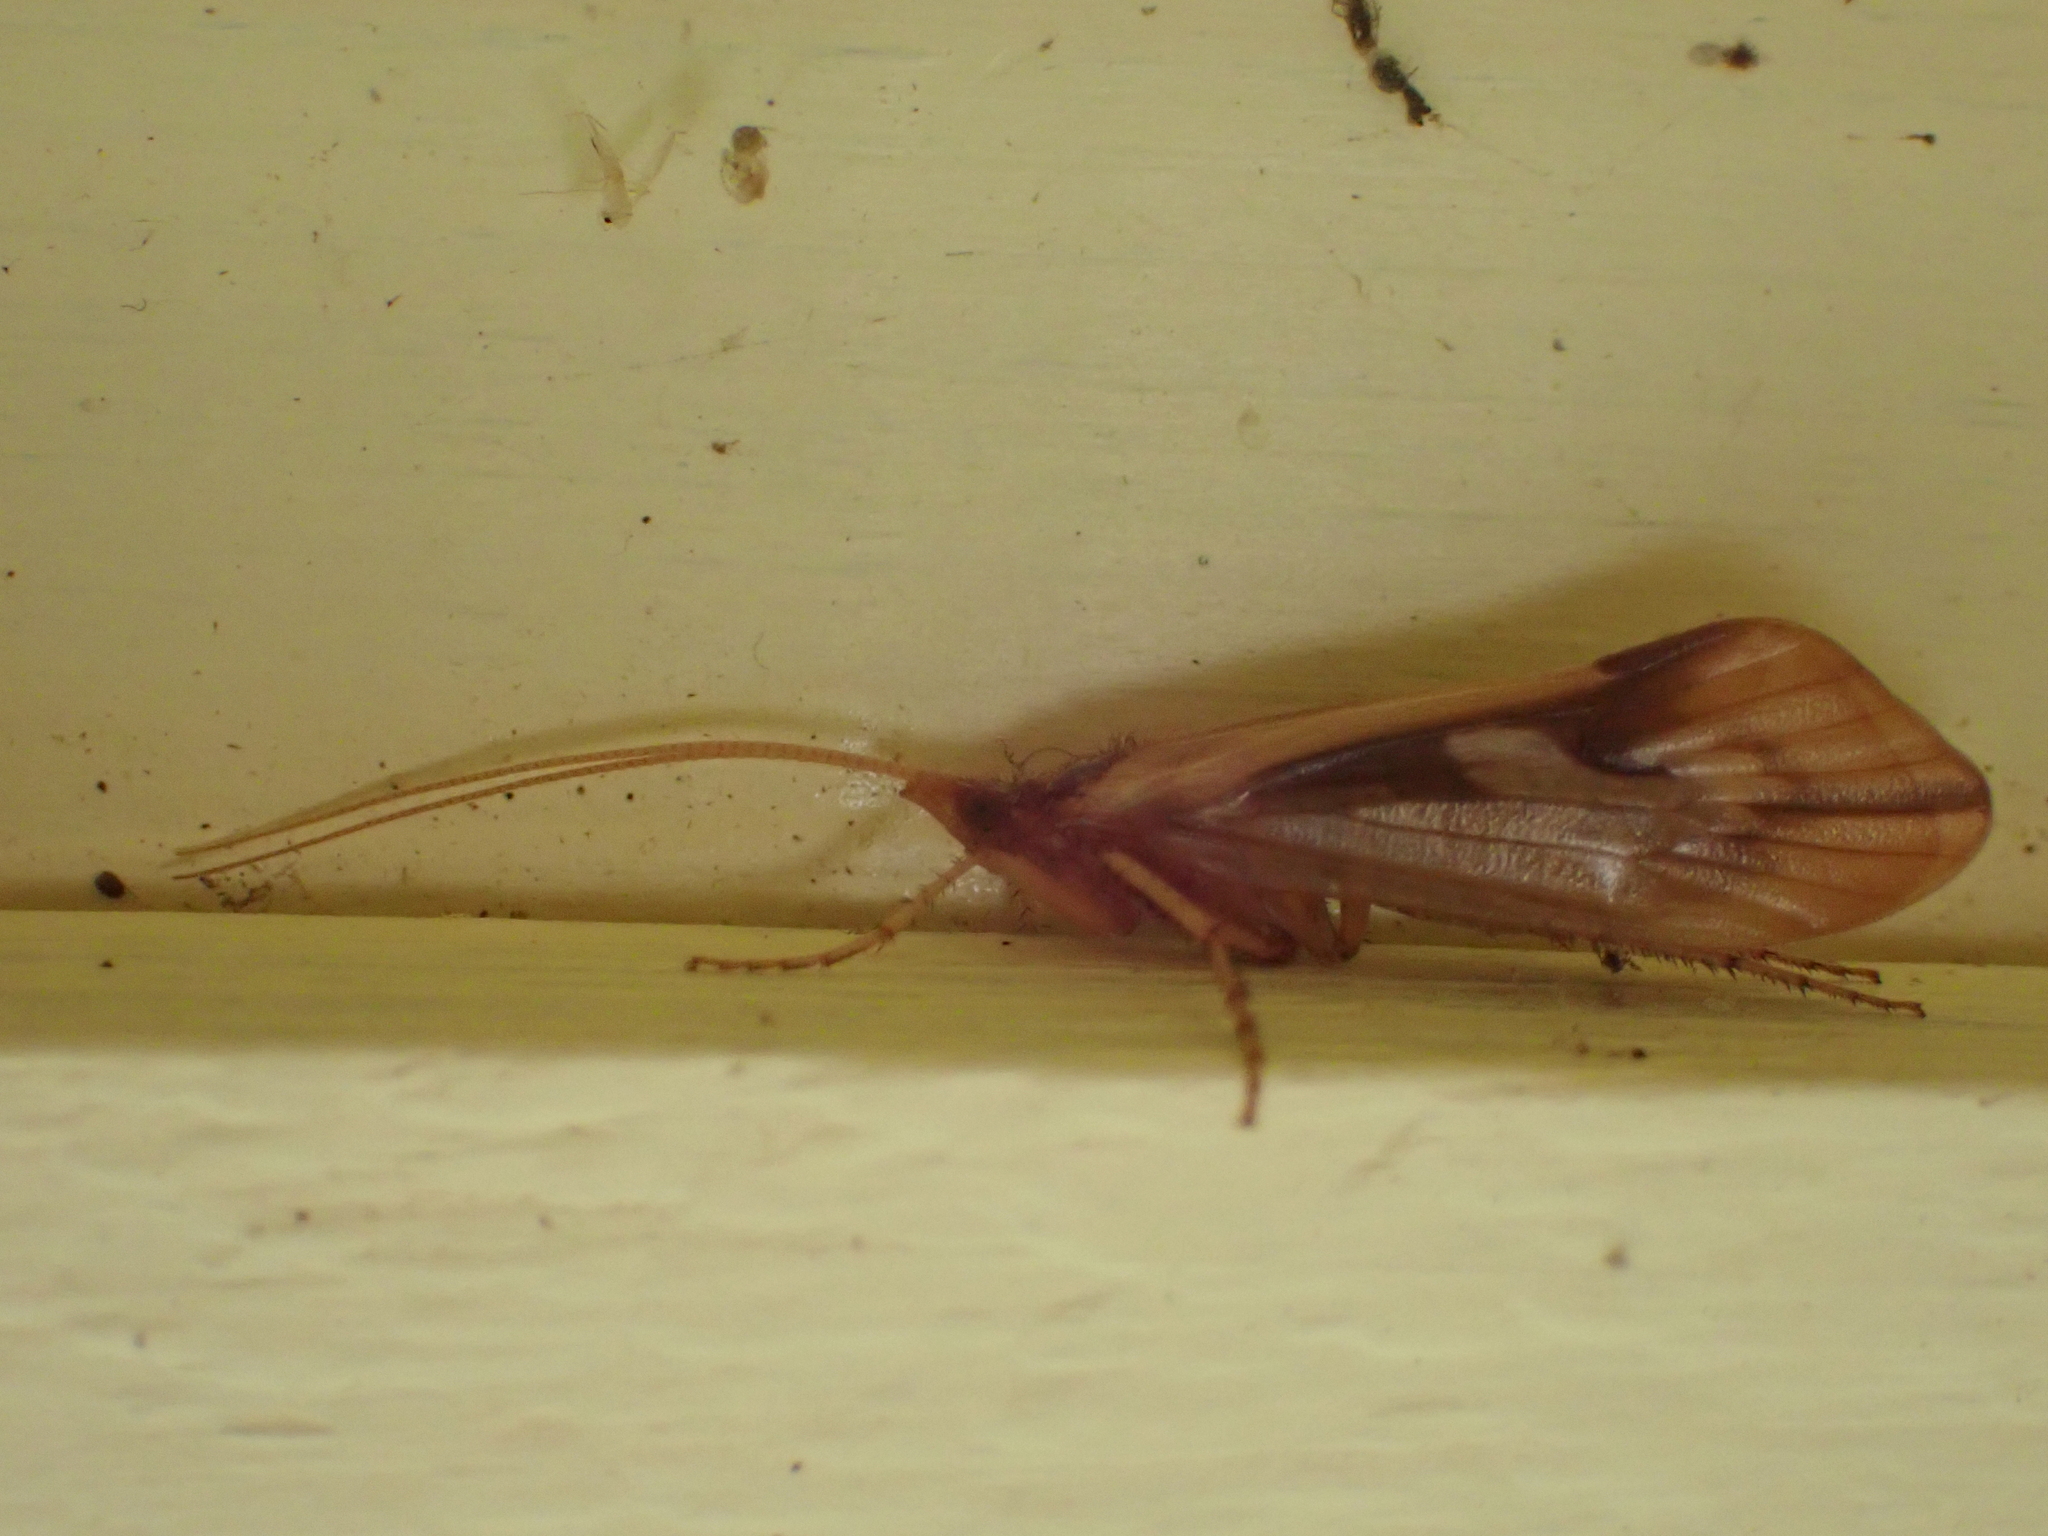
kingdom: Animalia
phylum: Arthropoda
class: Insecta
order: Trichoptera
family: Limnephilidae
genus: Platycentropus
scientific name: Platycentropus radiatus
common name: Chocolate-and-cream sedge
